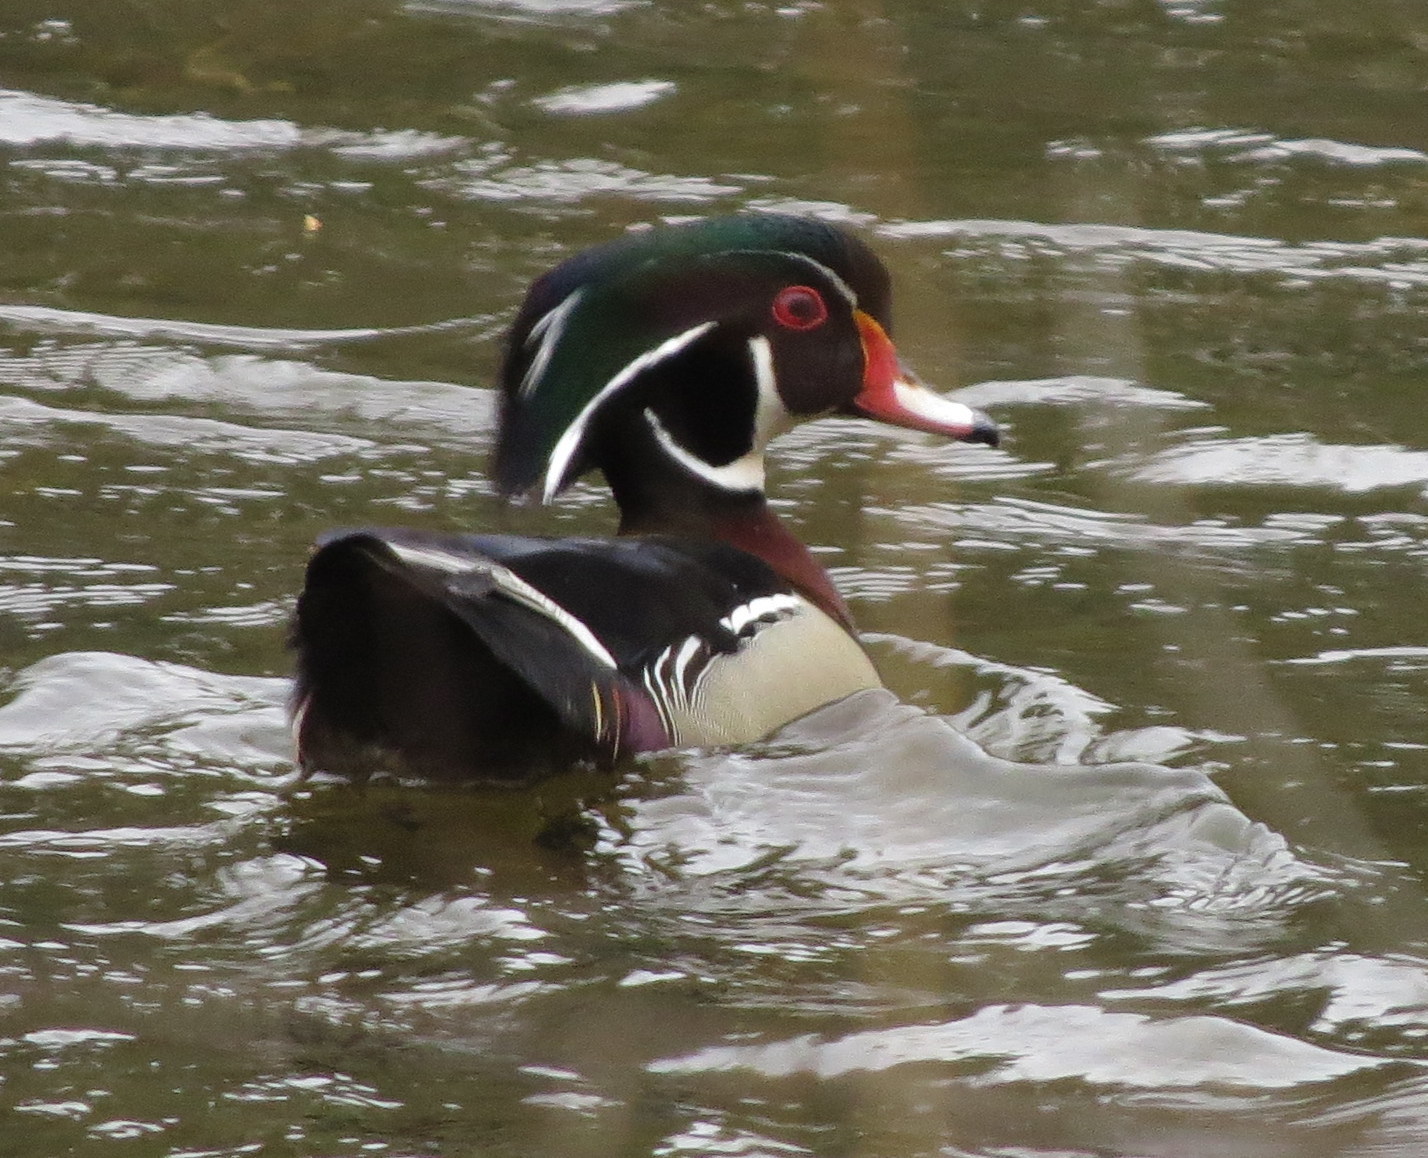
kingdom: Animalia
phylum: Chordata
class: Aves
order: Anseriformes
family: Anatidae
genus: Aix
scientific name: Aix sponsa
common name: Wood duck
